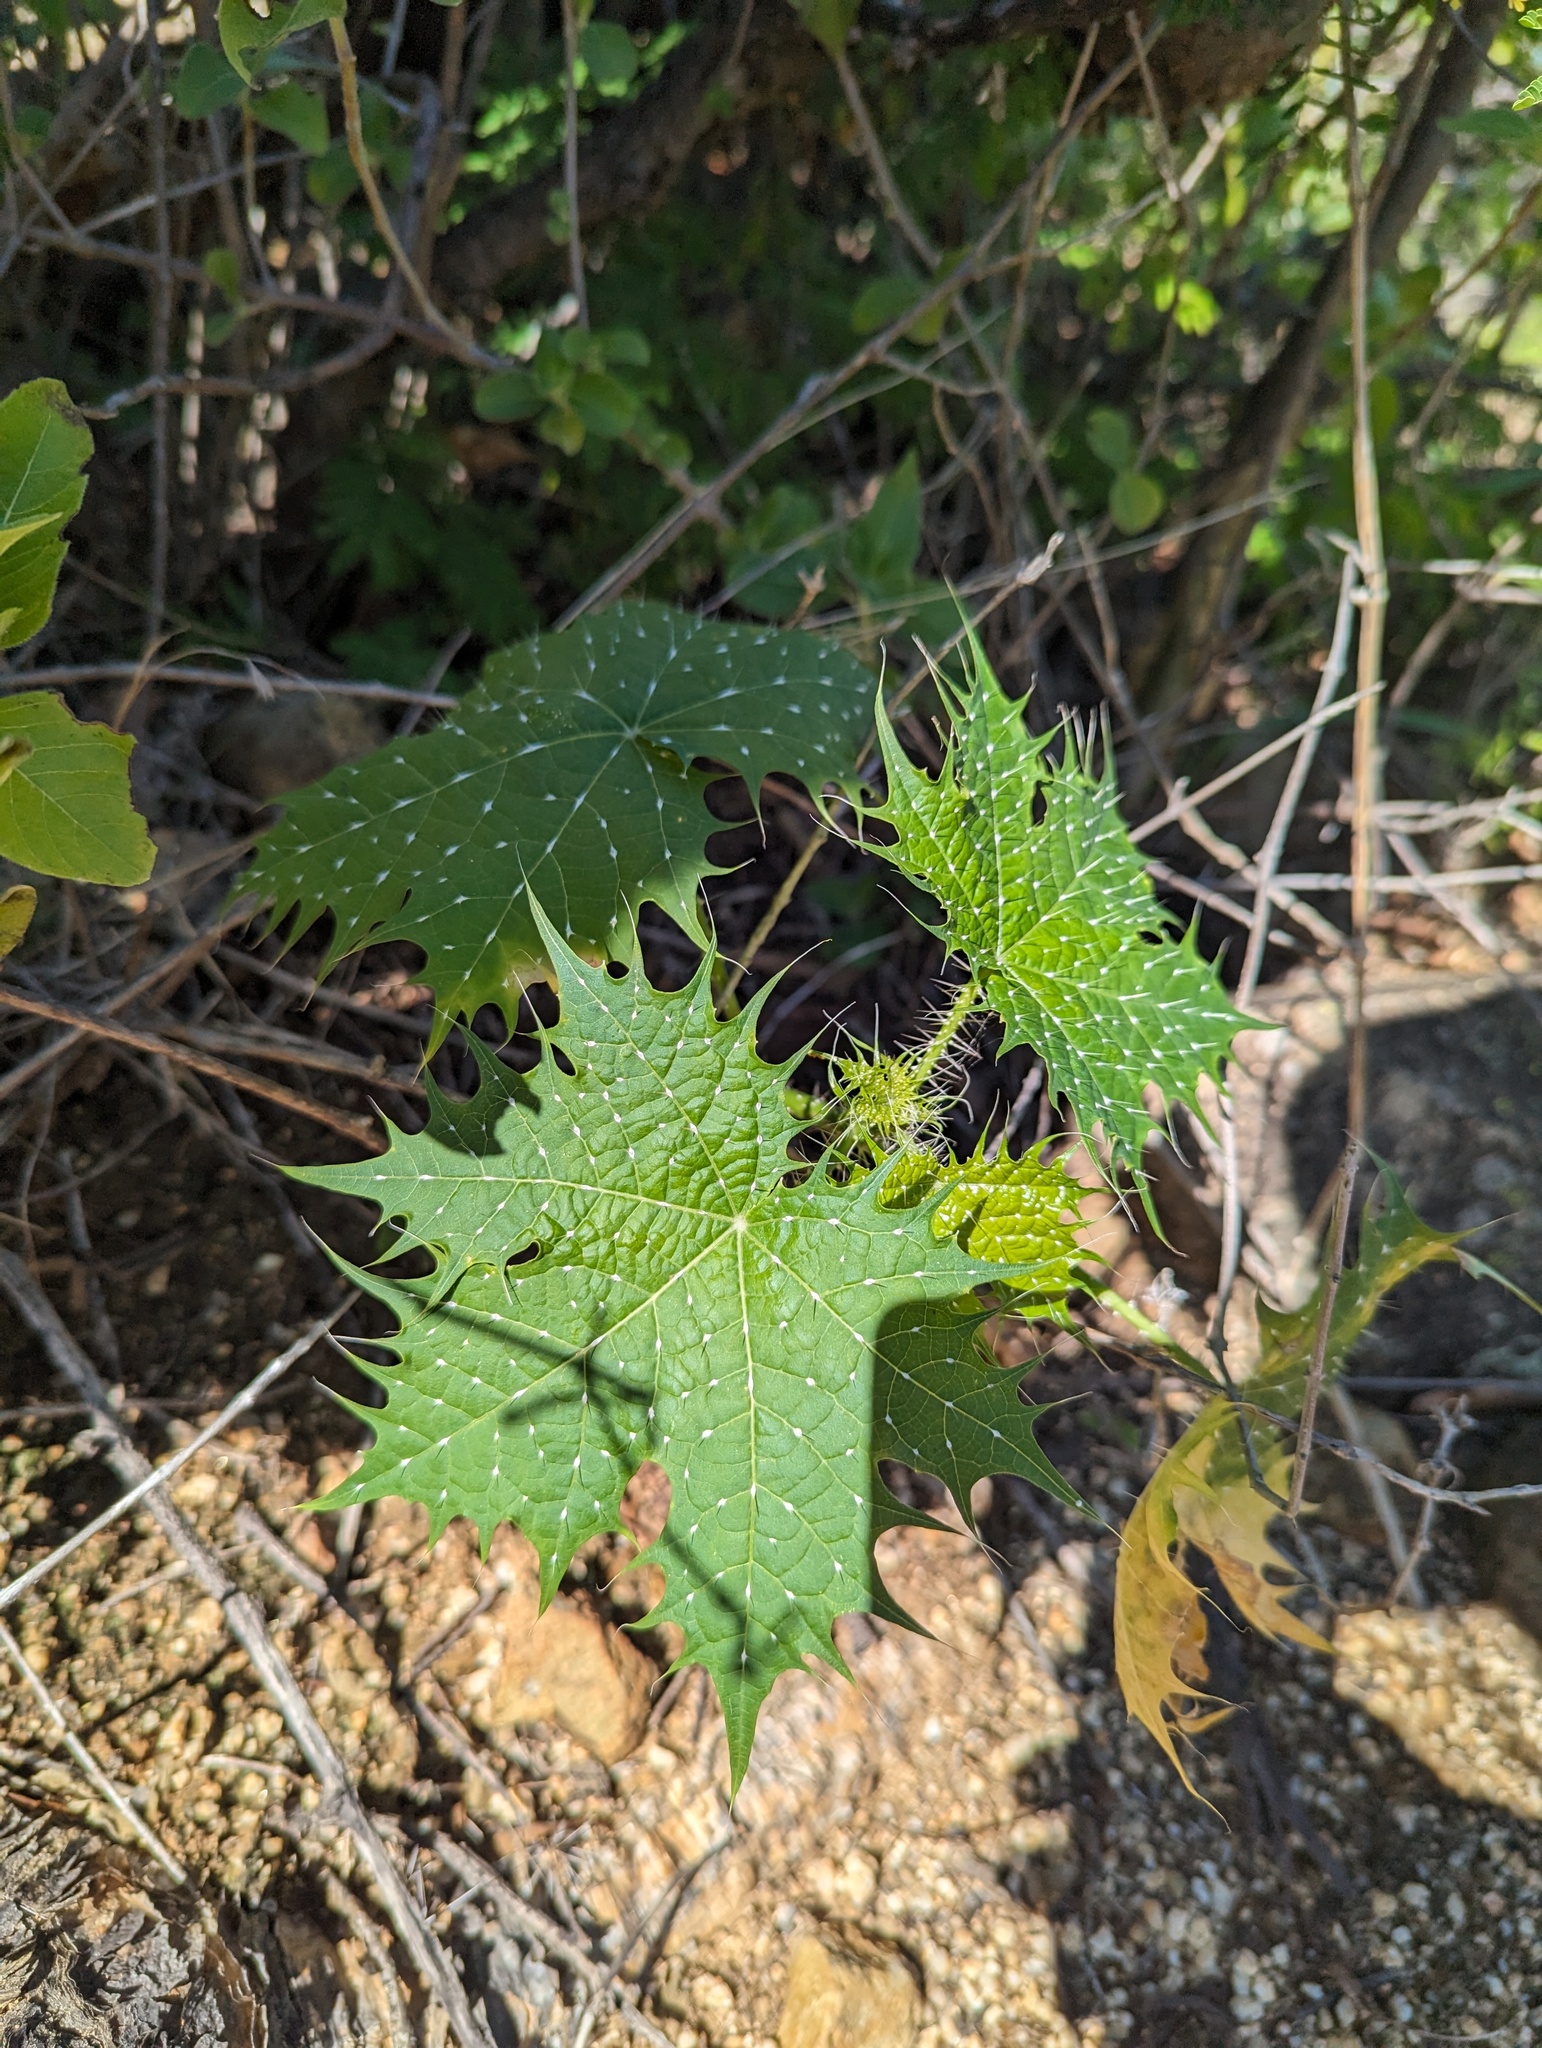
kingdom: Plantae
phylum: Tracheophyta
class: Magnoliopsida
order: Malpighiales
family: Euphorbiaceae
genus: Cnidoscolus
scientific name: Cnidoscolus maculatus
